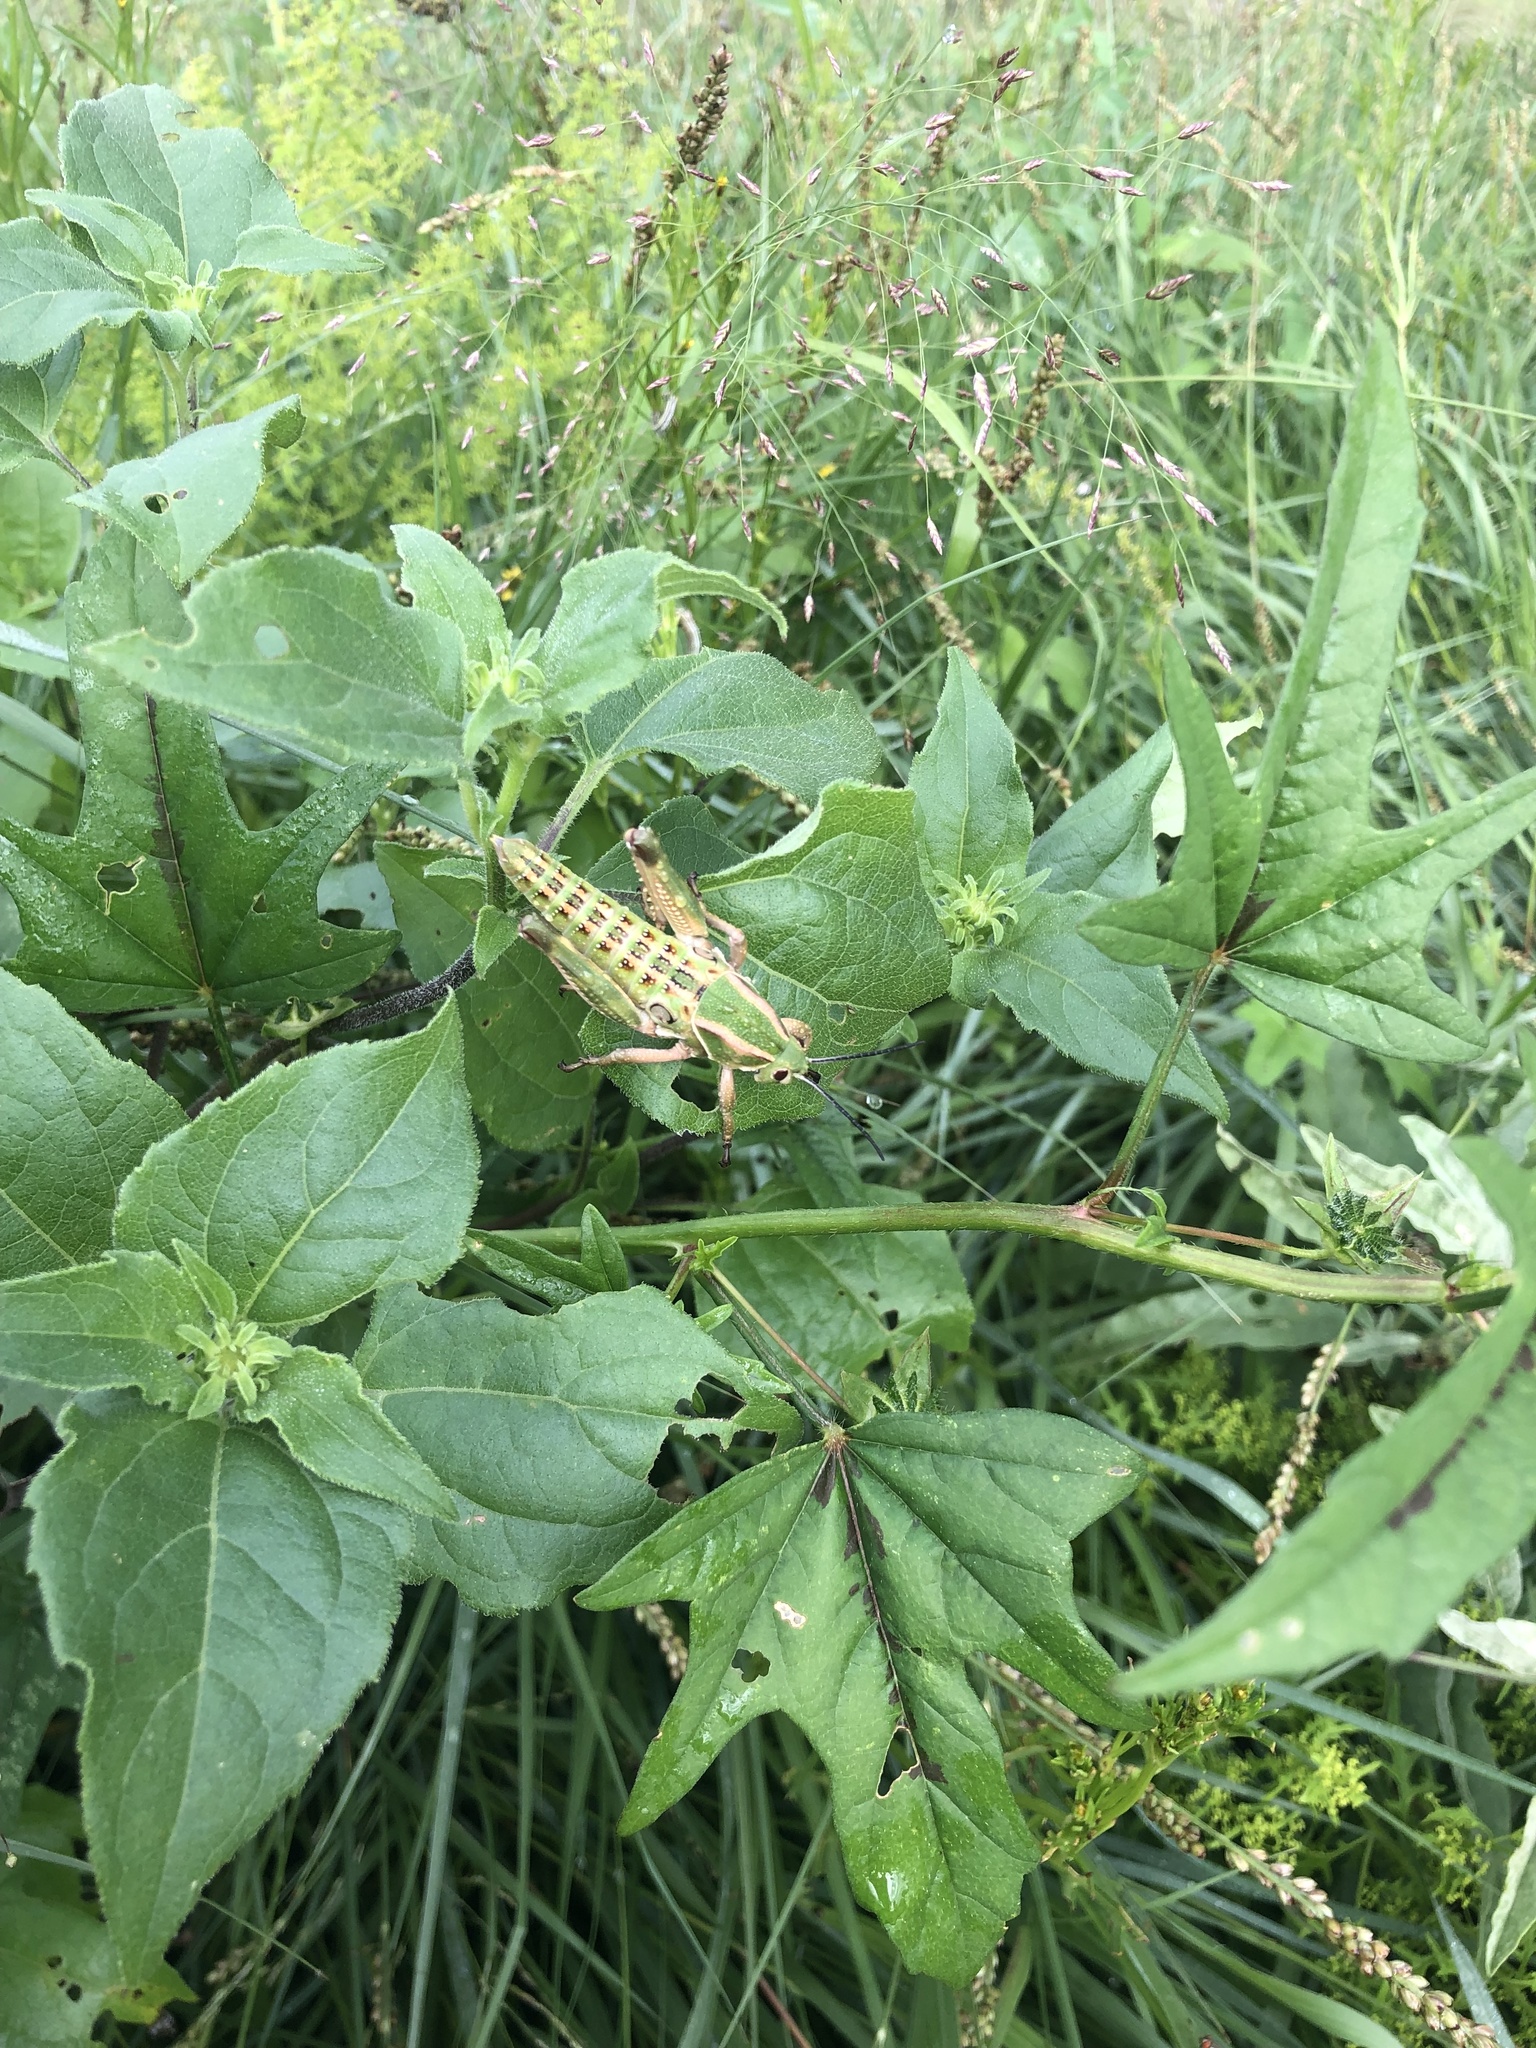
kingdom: Animalia
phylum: Arthropoda
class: Insecta
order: Orthoptera
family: Romaleidae
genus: Brachystola
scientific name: Brachystola magna
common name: Plains lubber grasshopper
